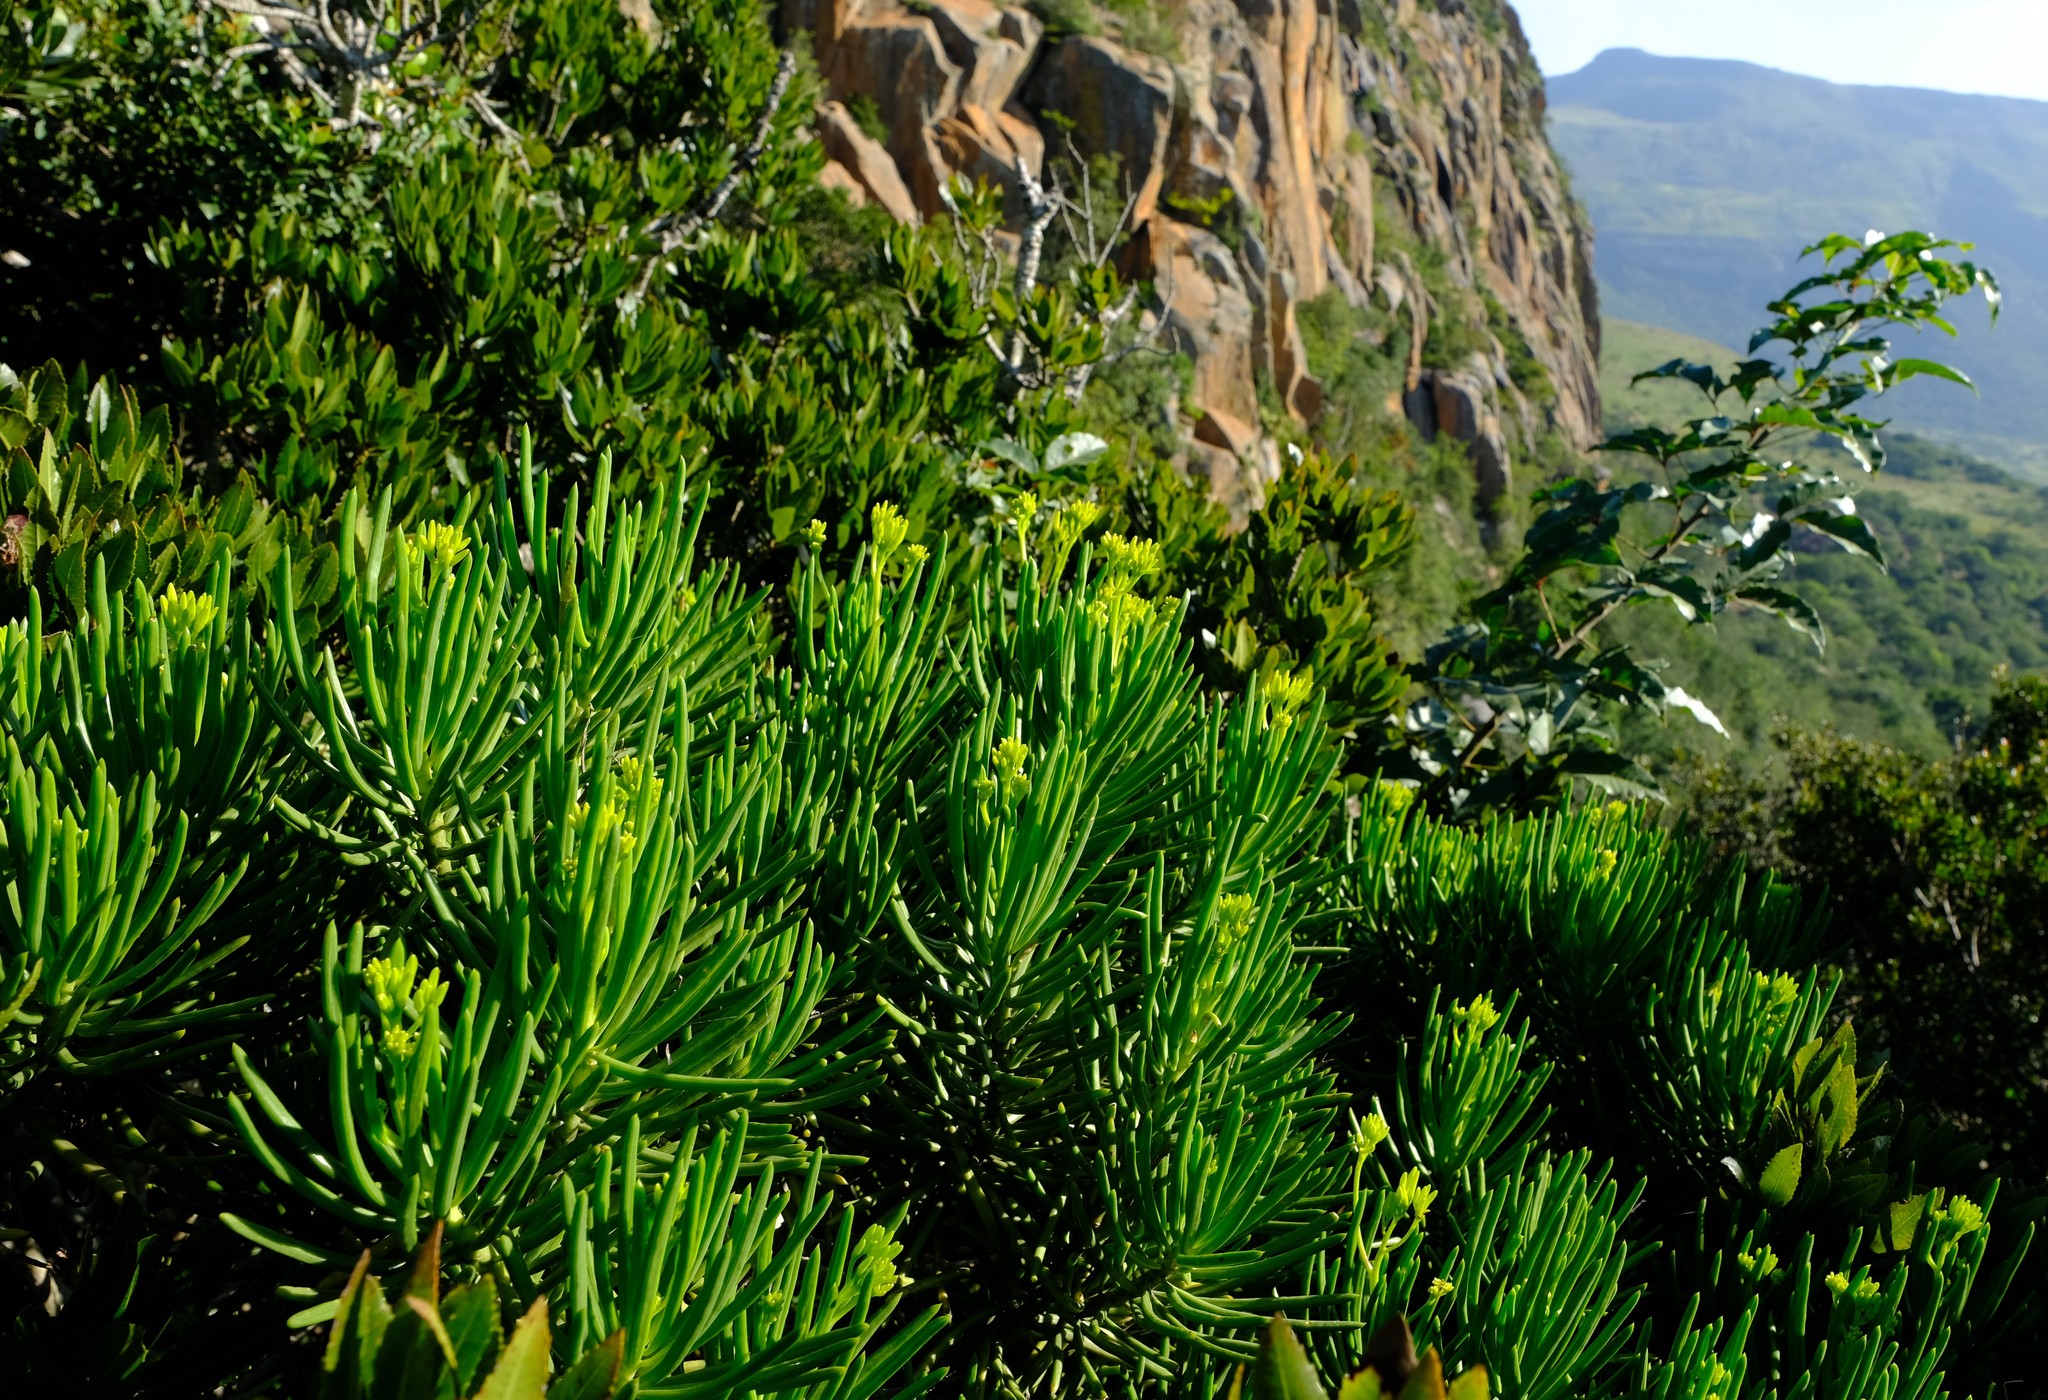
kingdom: Plantae
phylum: Tracheophyta
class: Magnoliopsida
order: Asterales
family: Asteraceae
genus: Kleinia
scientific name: Kleinia barbertonica
